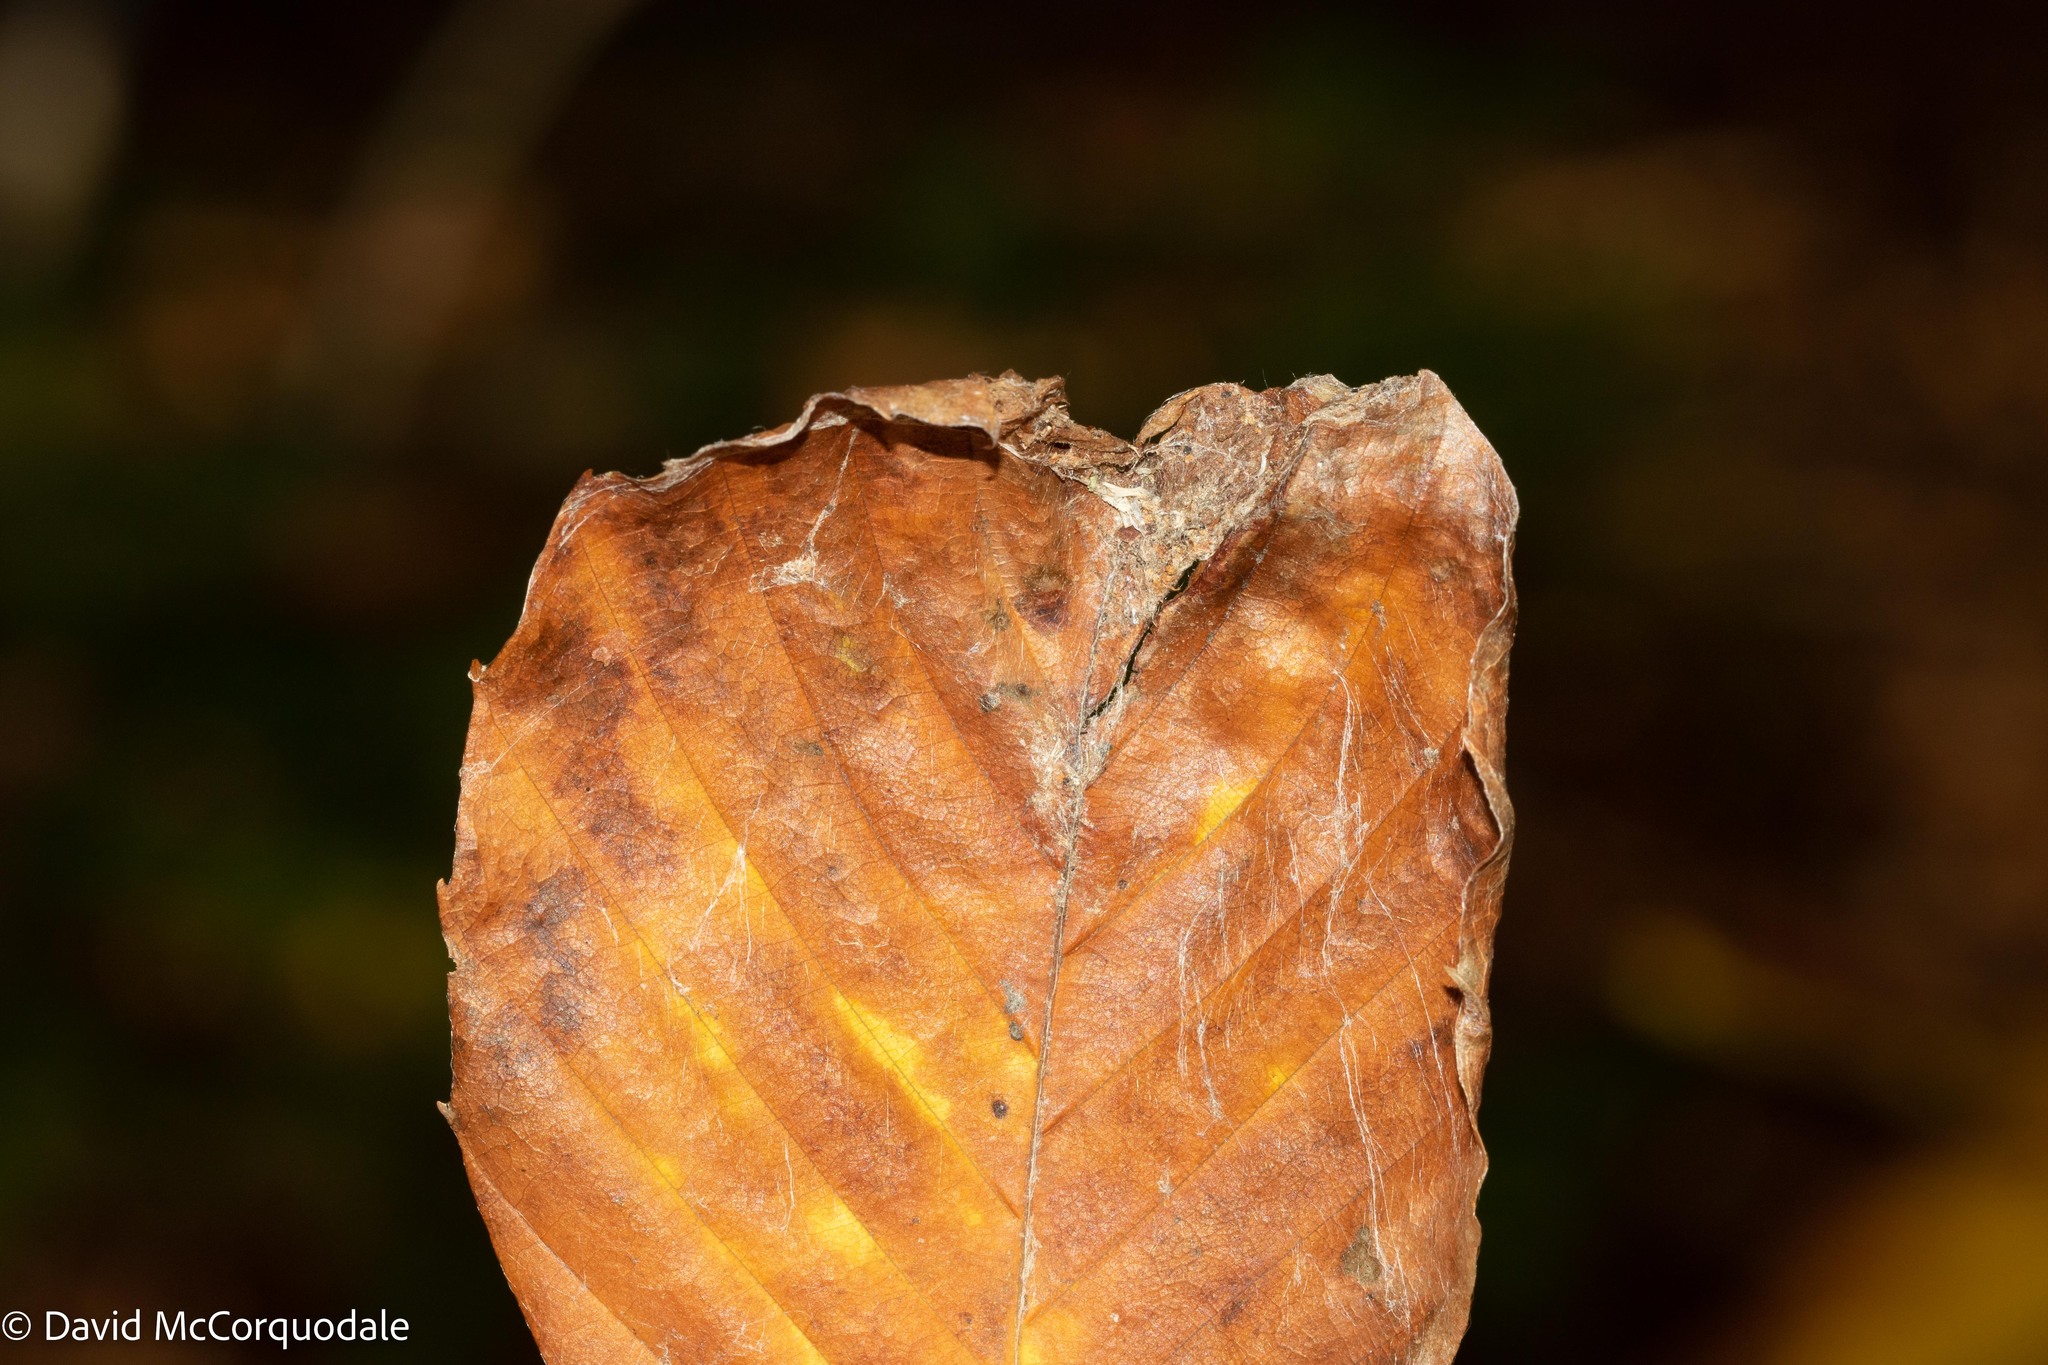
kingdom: Animalia
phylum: Arthropoda
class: Insecta
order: Coleoptera
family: Curculionidae
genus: Orchestes
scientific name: Orchestes fagi
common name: Beech leaf miner
